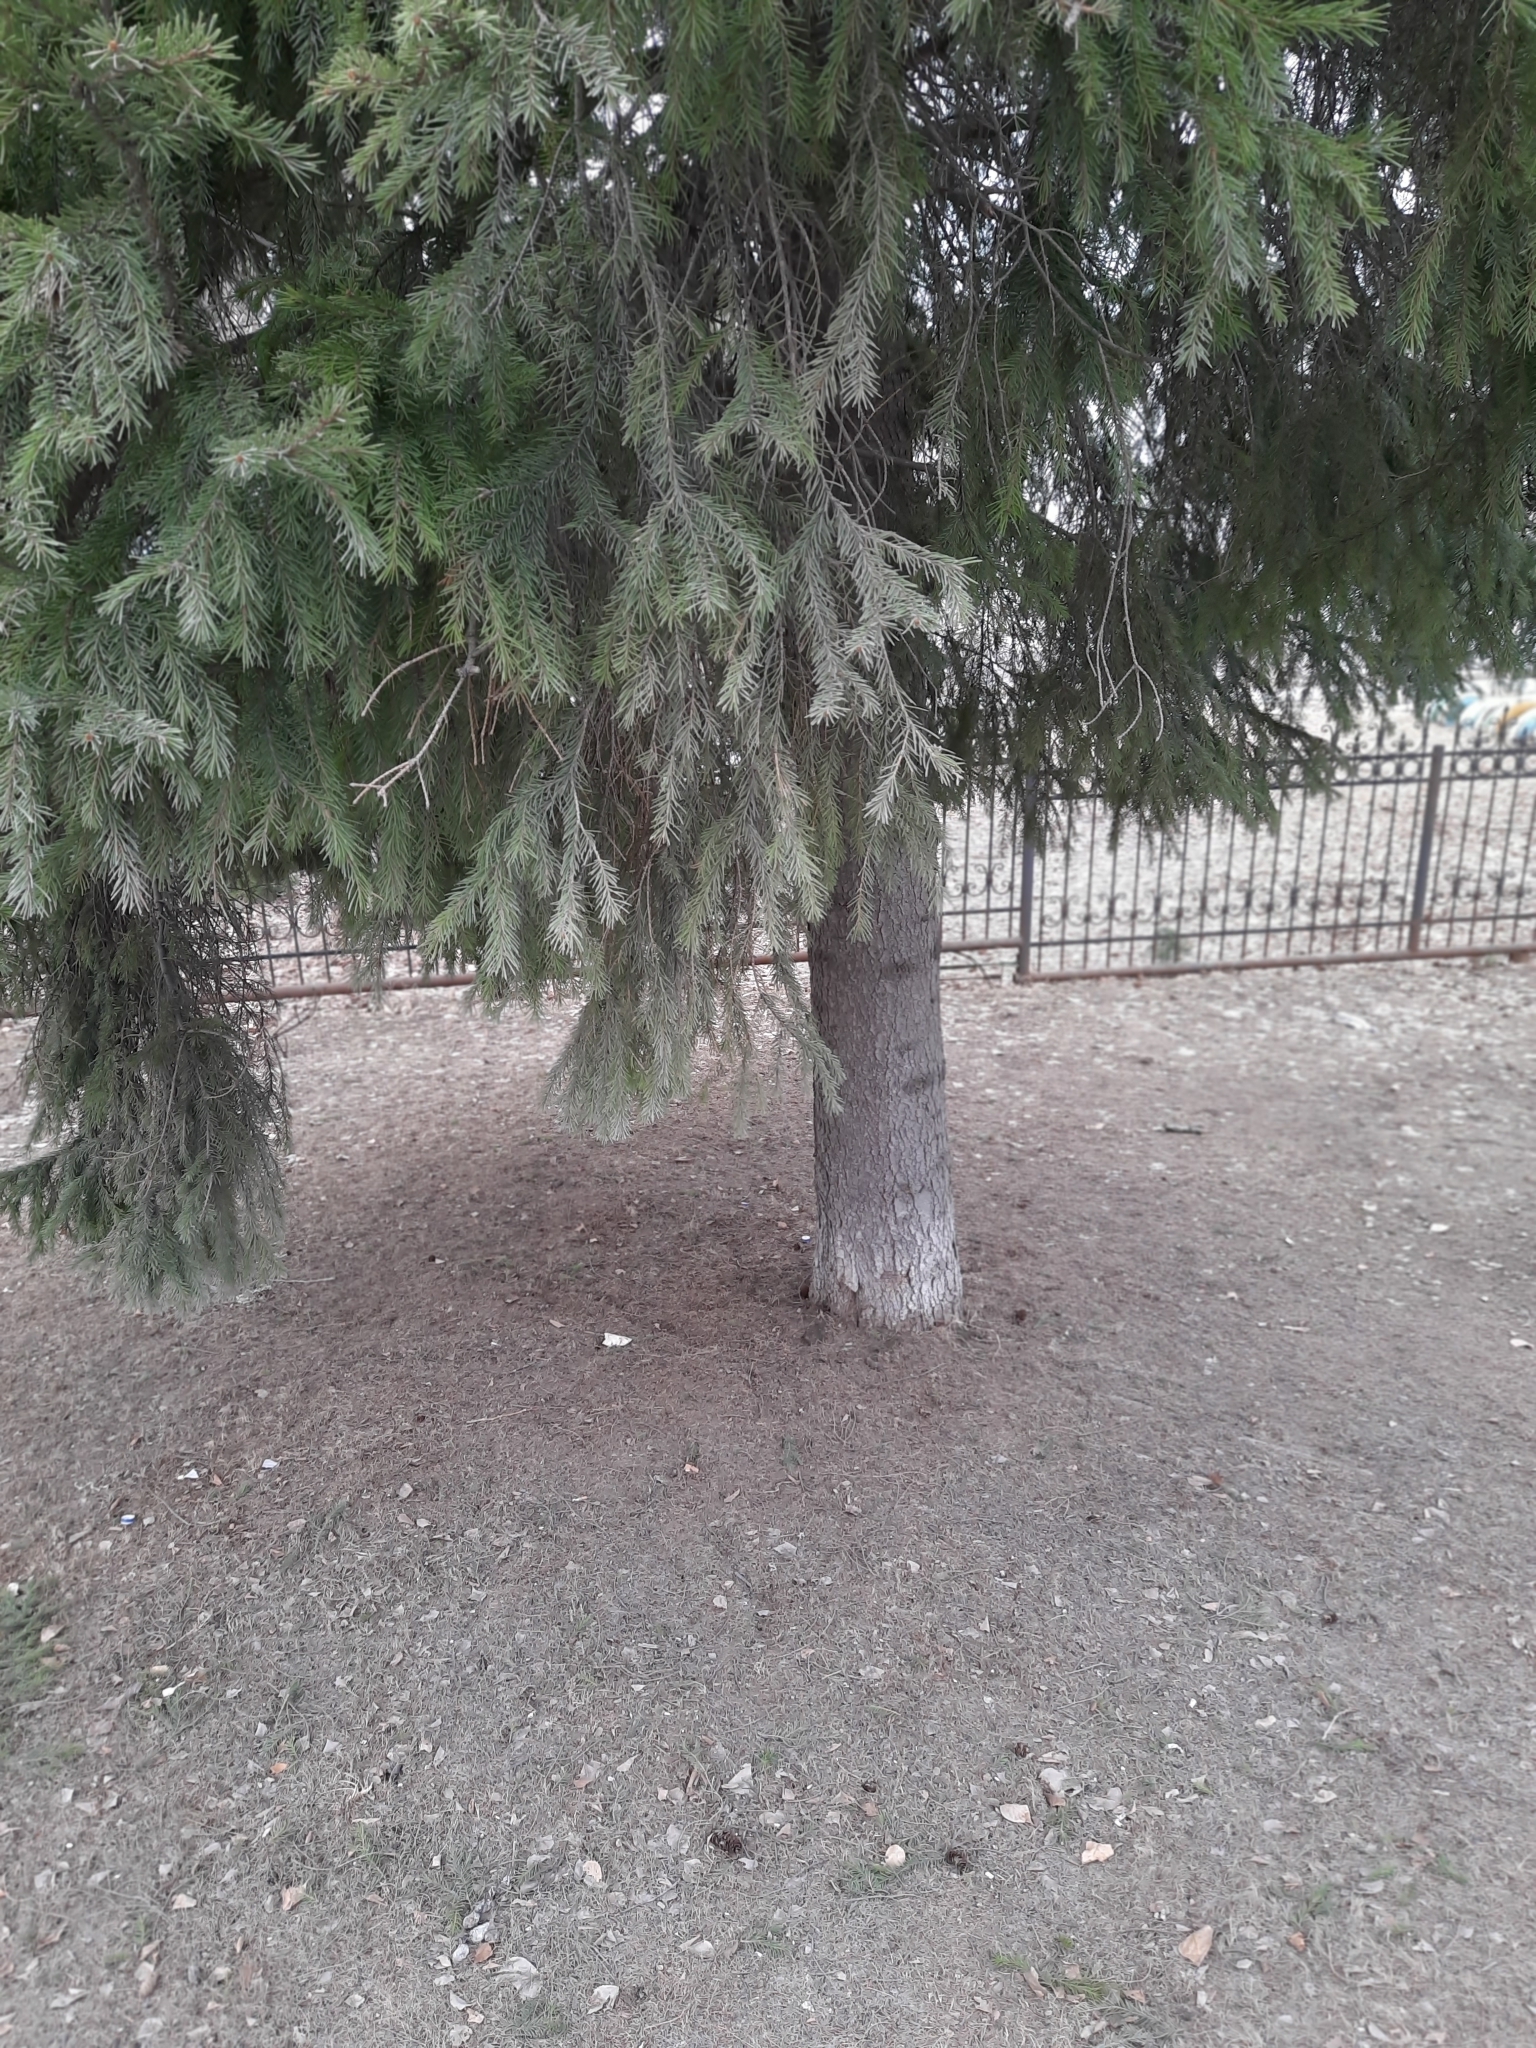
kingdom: Plantae
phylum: Tracheophyta
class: Pinopsida
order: Pinales
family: Pinaceae
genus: Picea
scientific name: Picea obovata
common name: Siberian spruce
